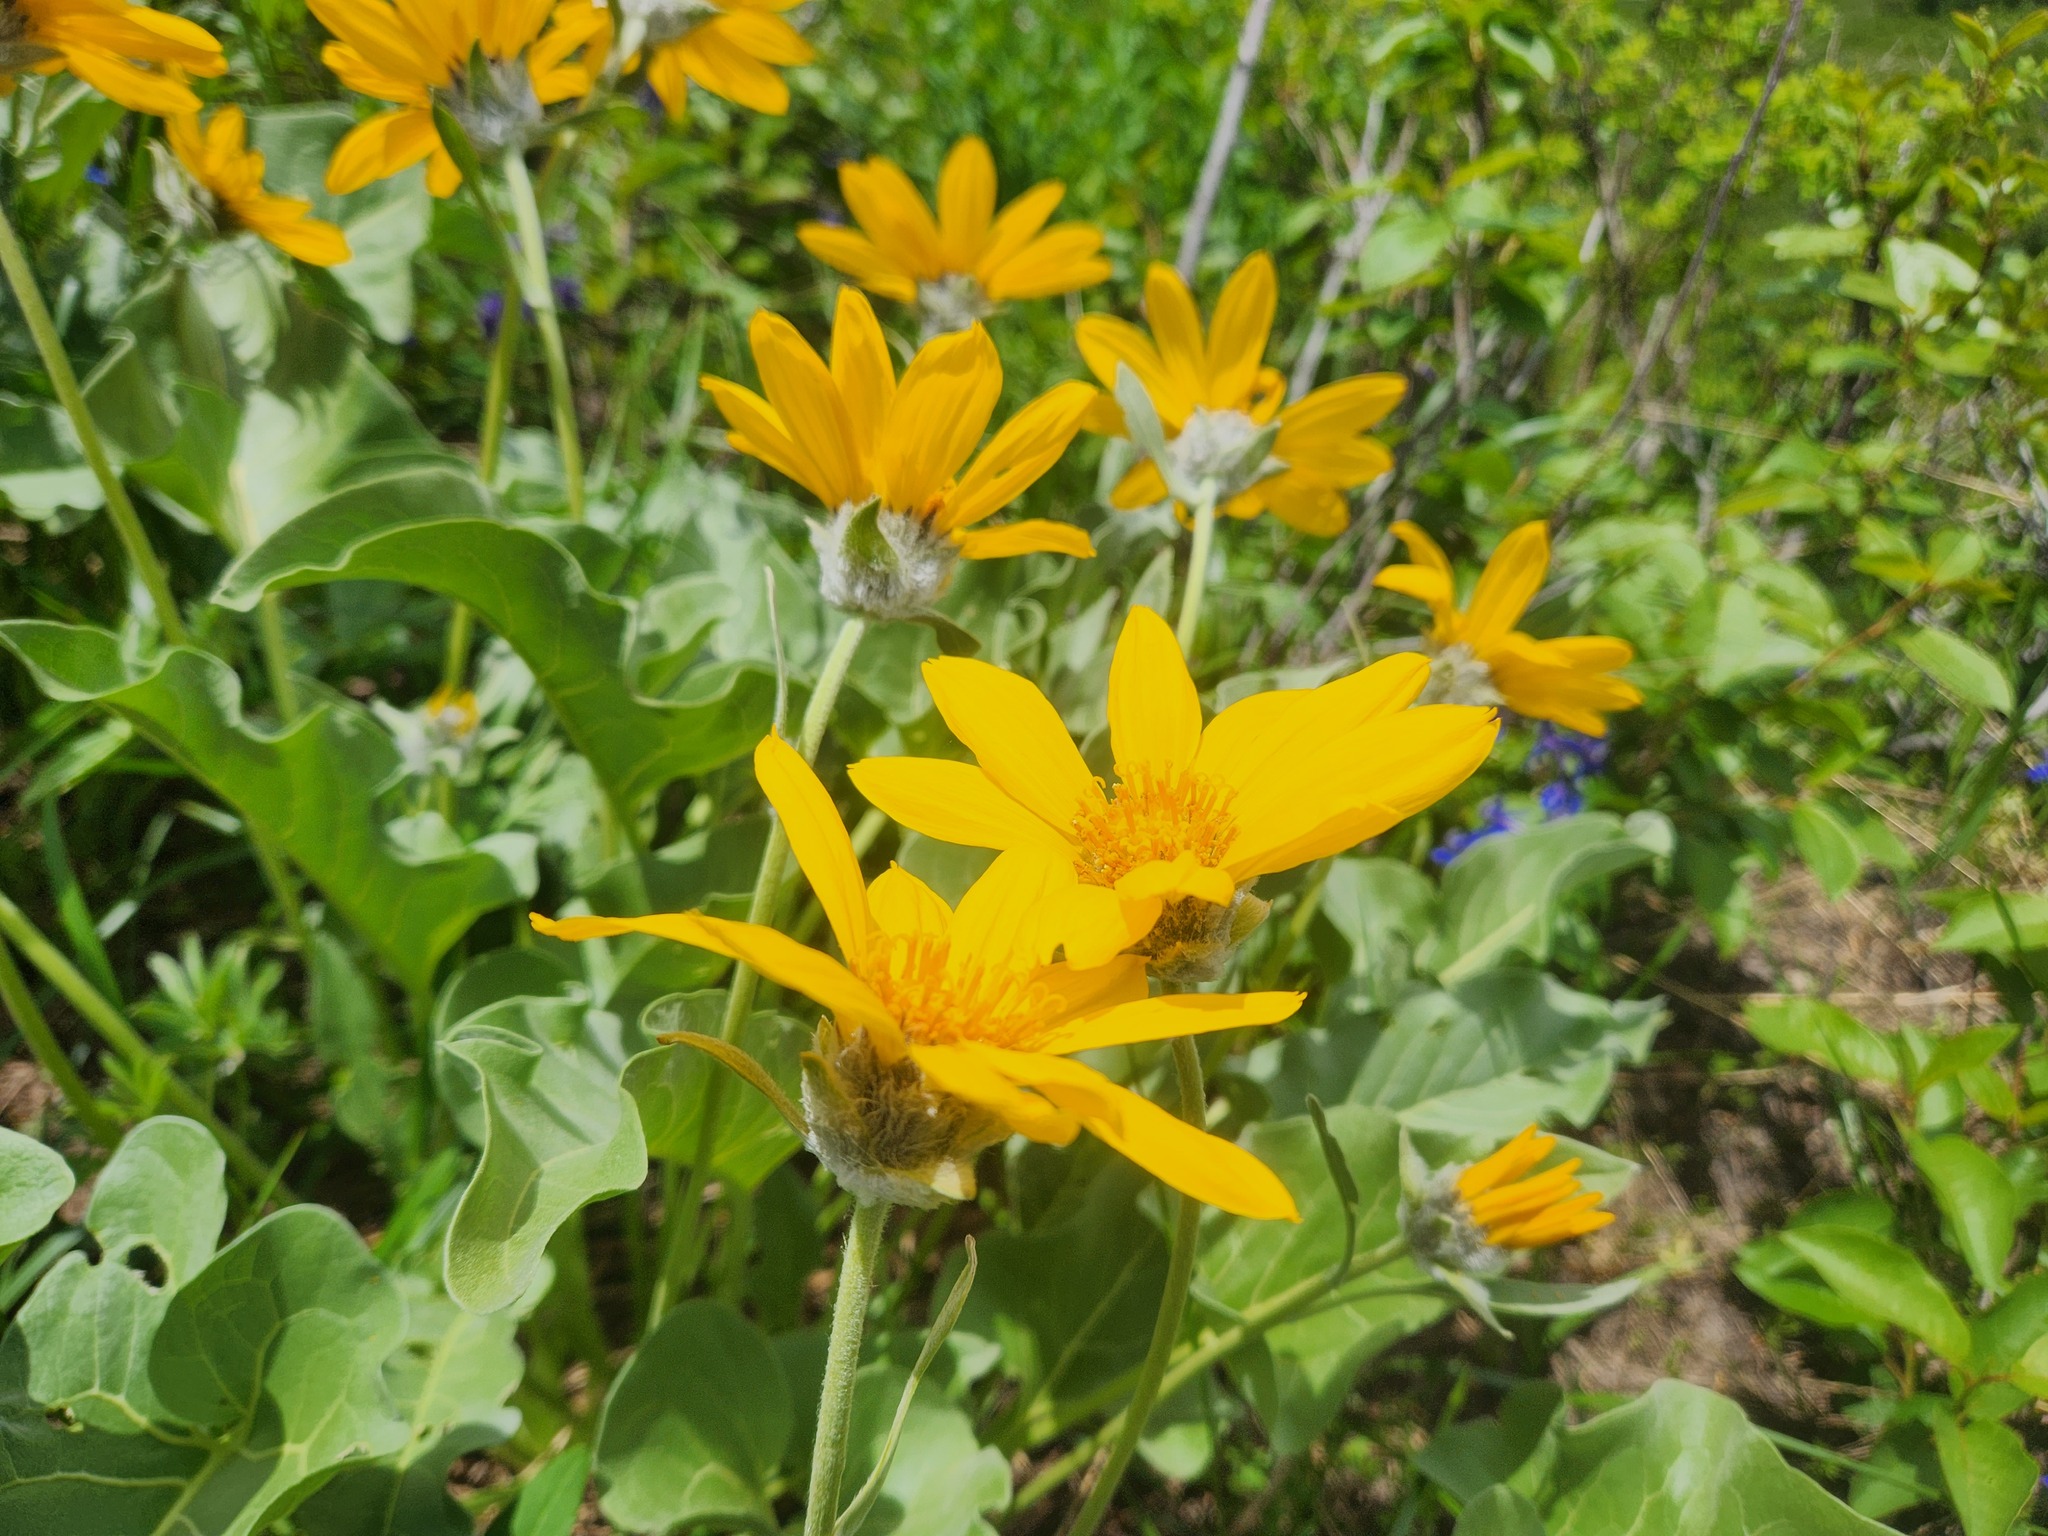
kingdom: Plantae
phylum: Tracheophyta
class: Magnoliopsida
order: Asterales
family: Asteraceae
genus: Wyethia
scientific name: Wyethia sagittata
